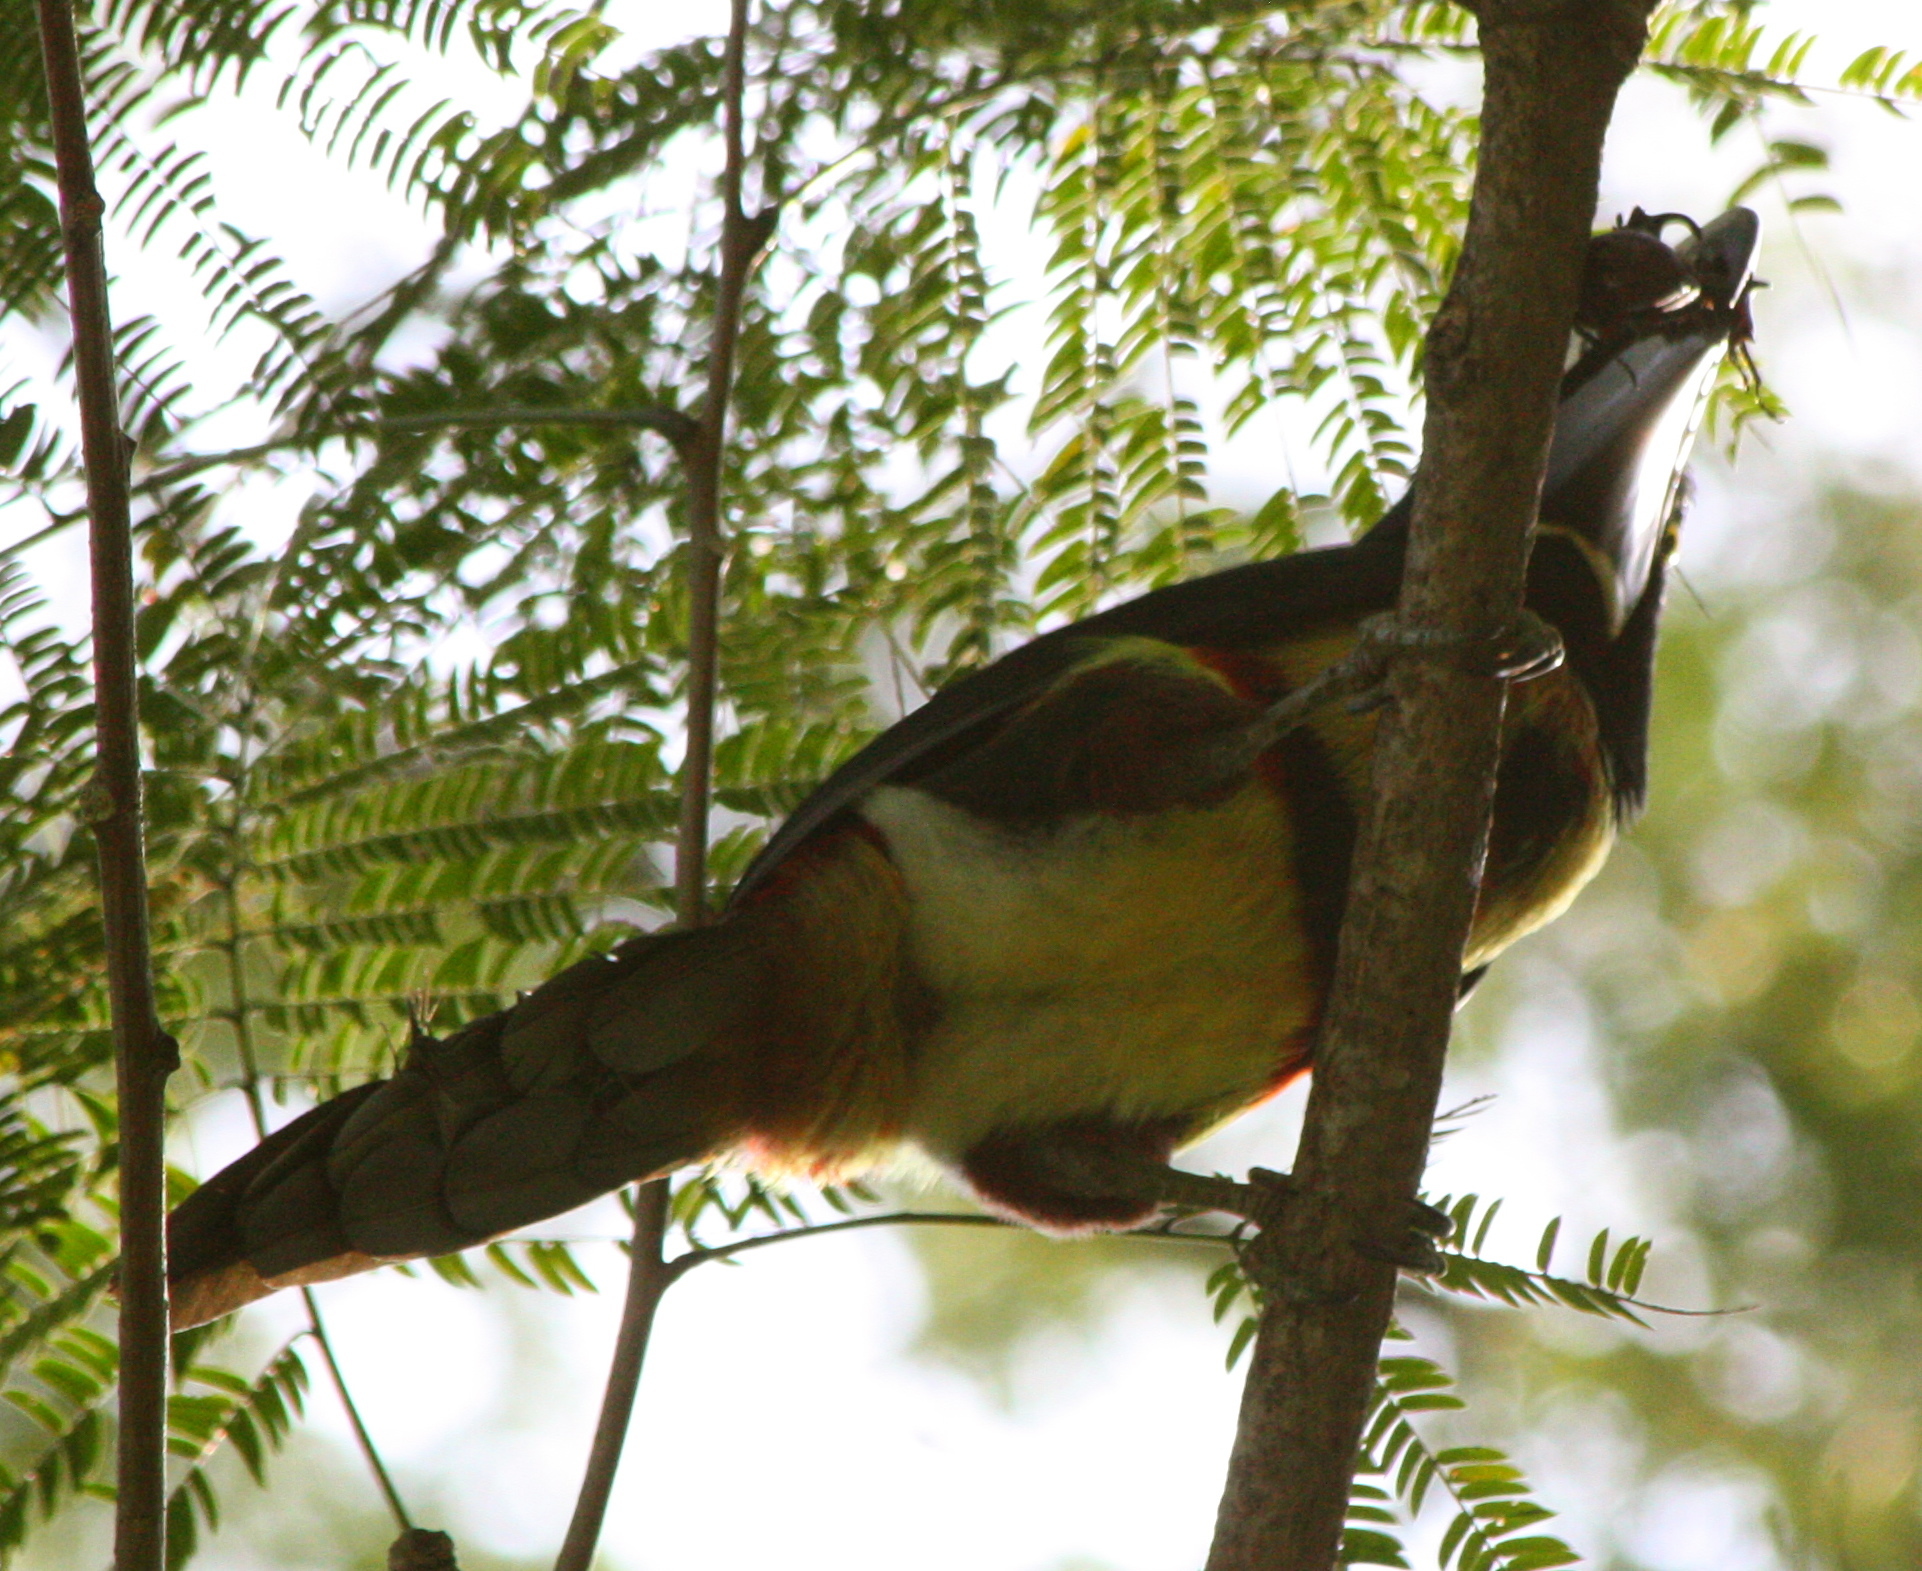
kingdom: Animalia
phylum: Chordata
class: Aves
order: Piciformes
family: Ramphastidae
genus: Pteroglossus
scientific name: Pteroglossus torquatus
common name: Collared aracari
